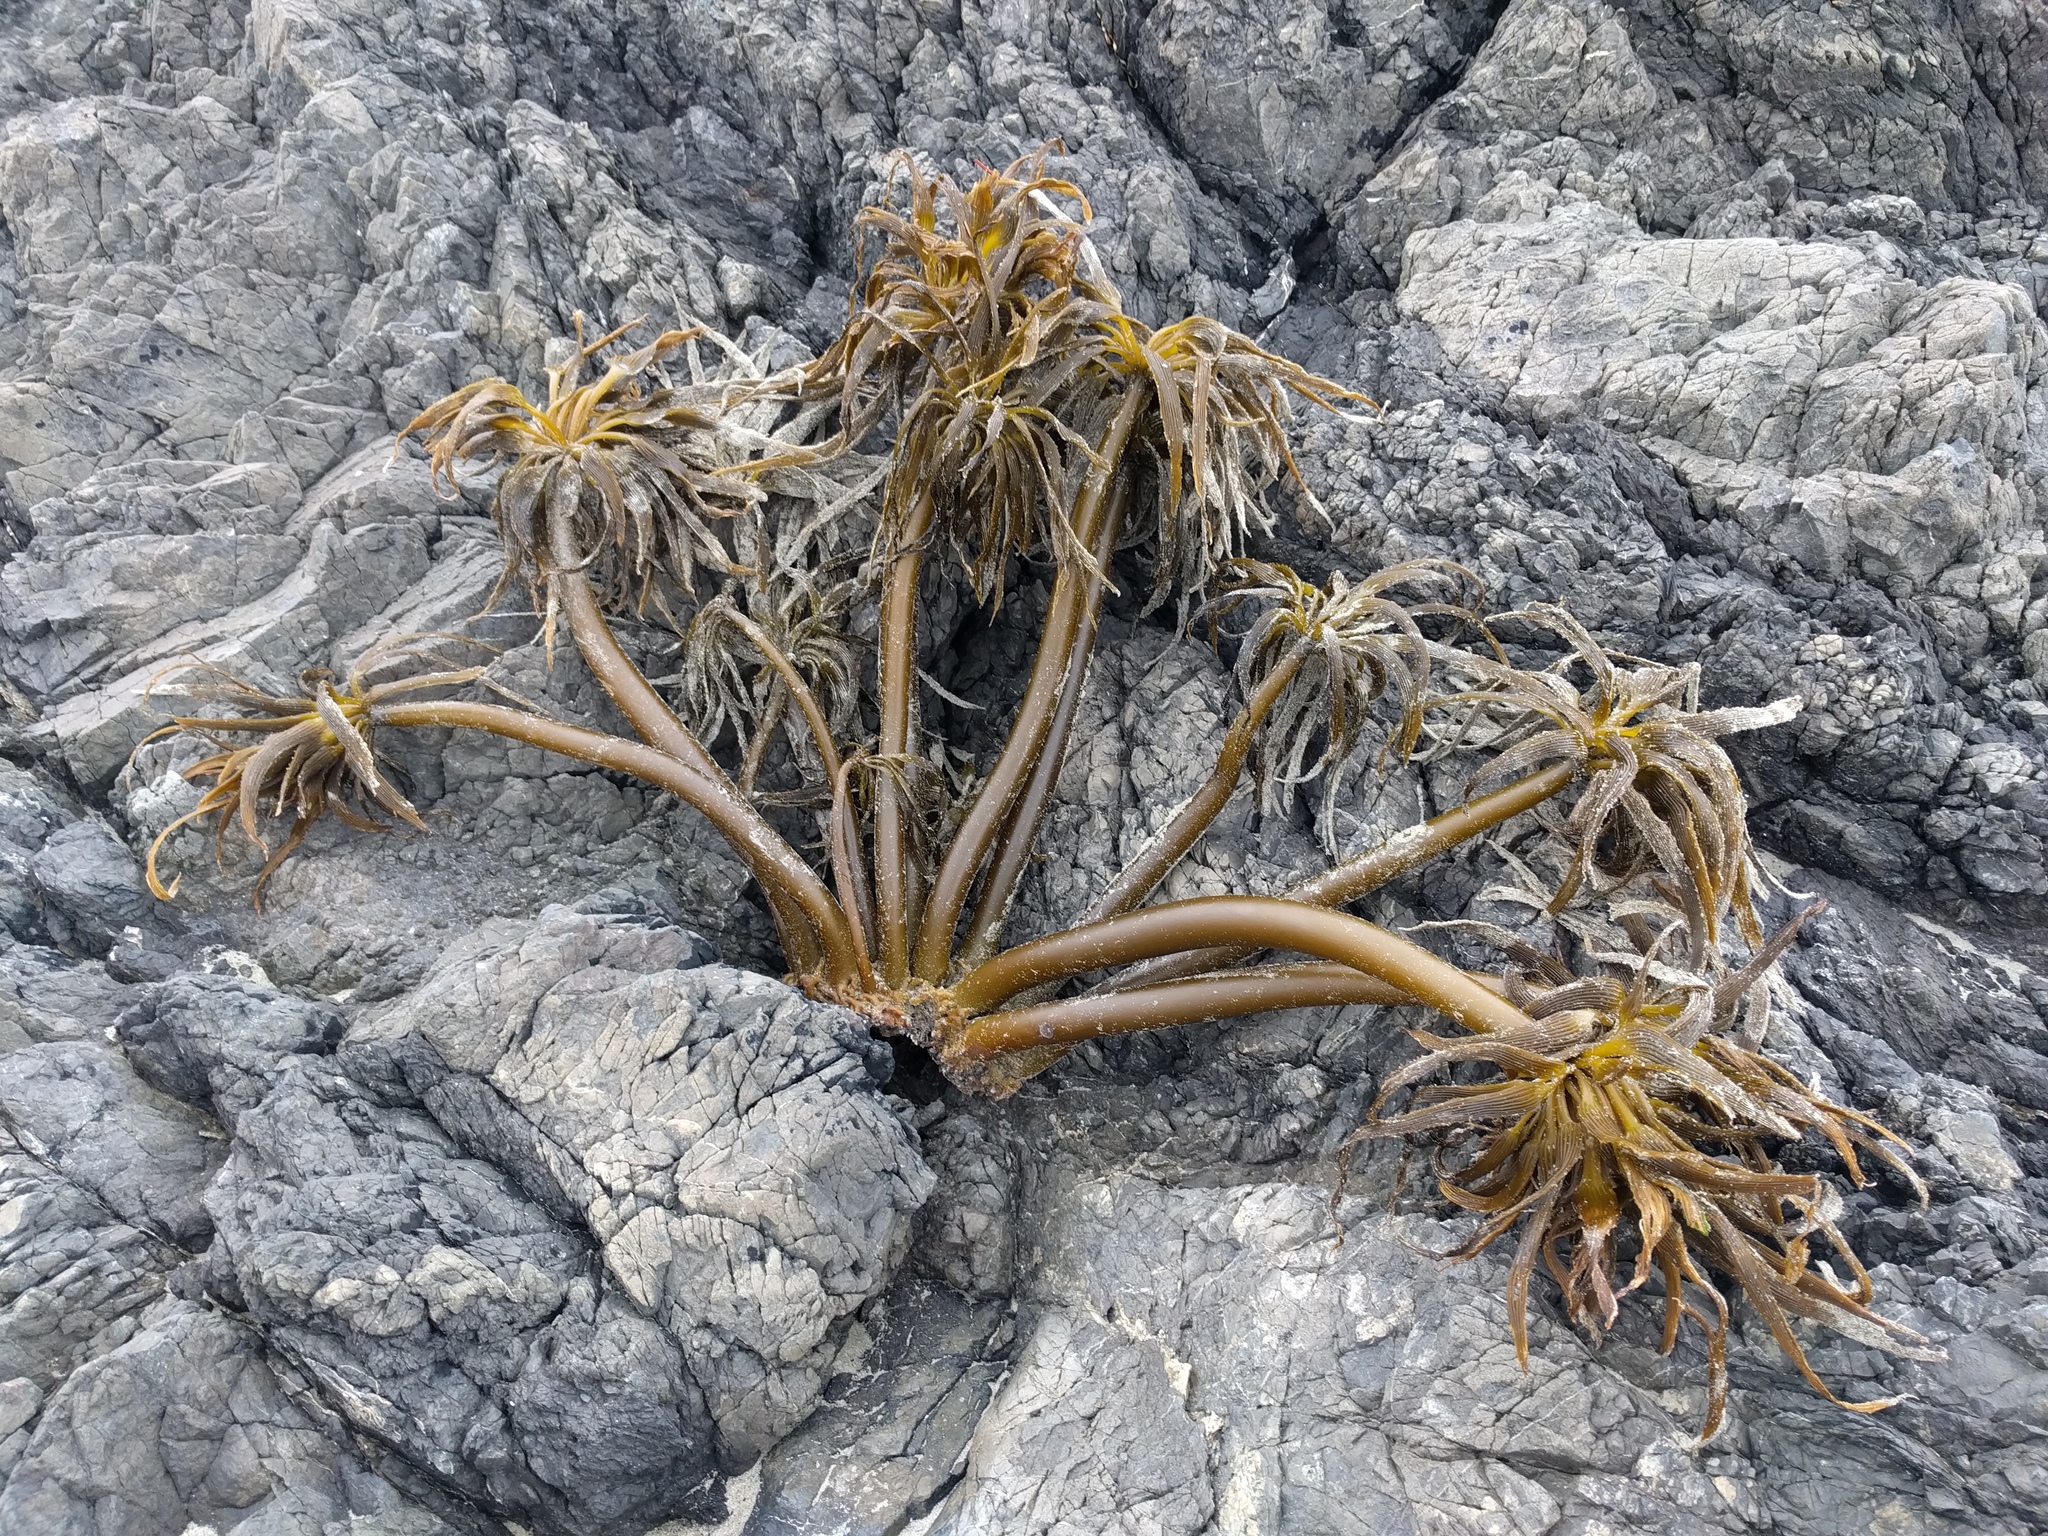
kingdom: Chromista
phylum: Ochrophyta
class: Phaeophyceae
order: Laminariales
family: Laminariaceae
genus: Postelsia
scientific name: Postelsia palmiformis
